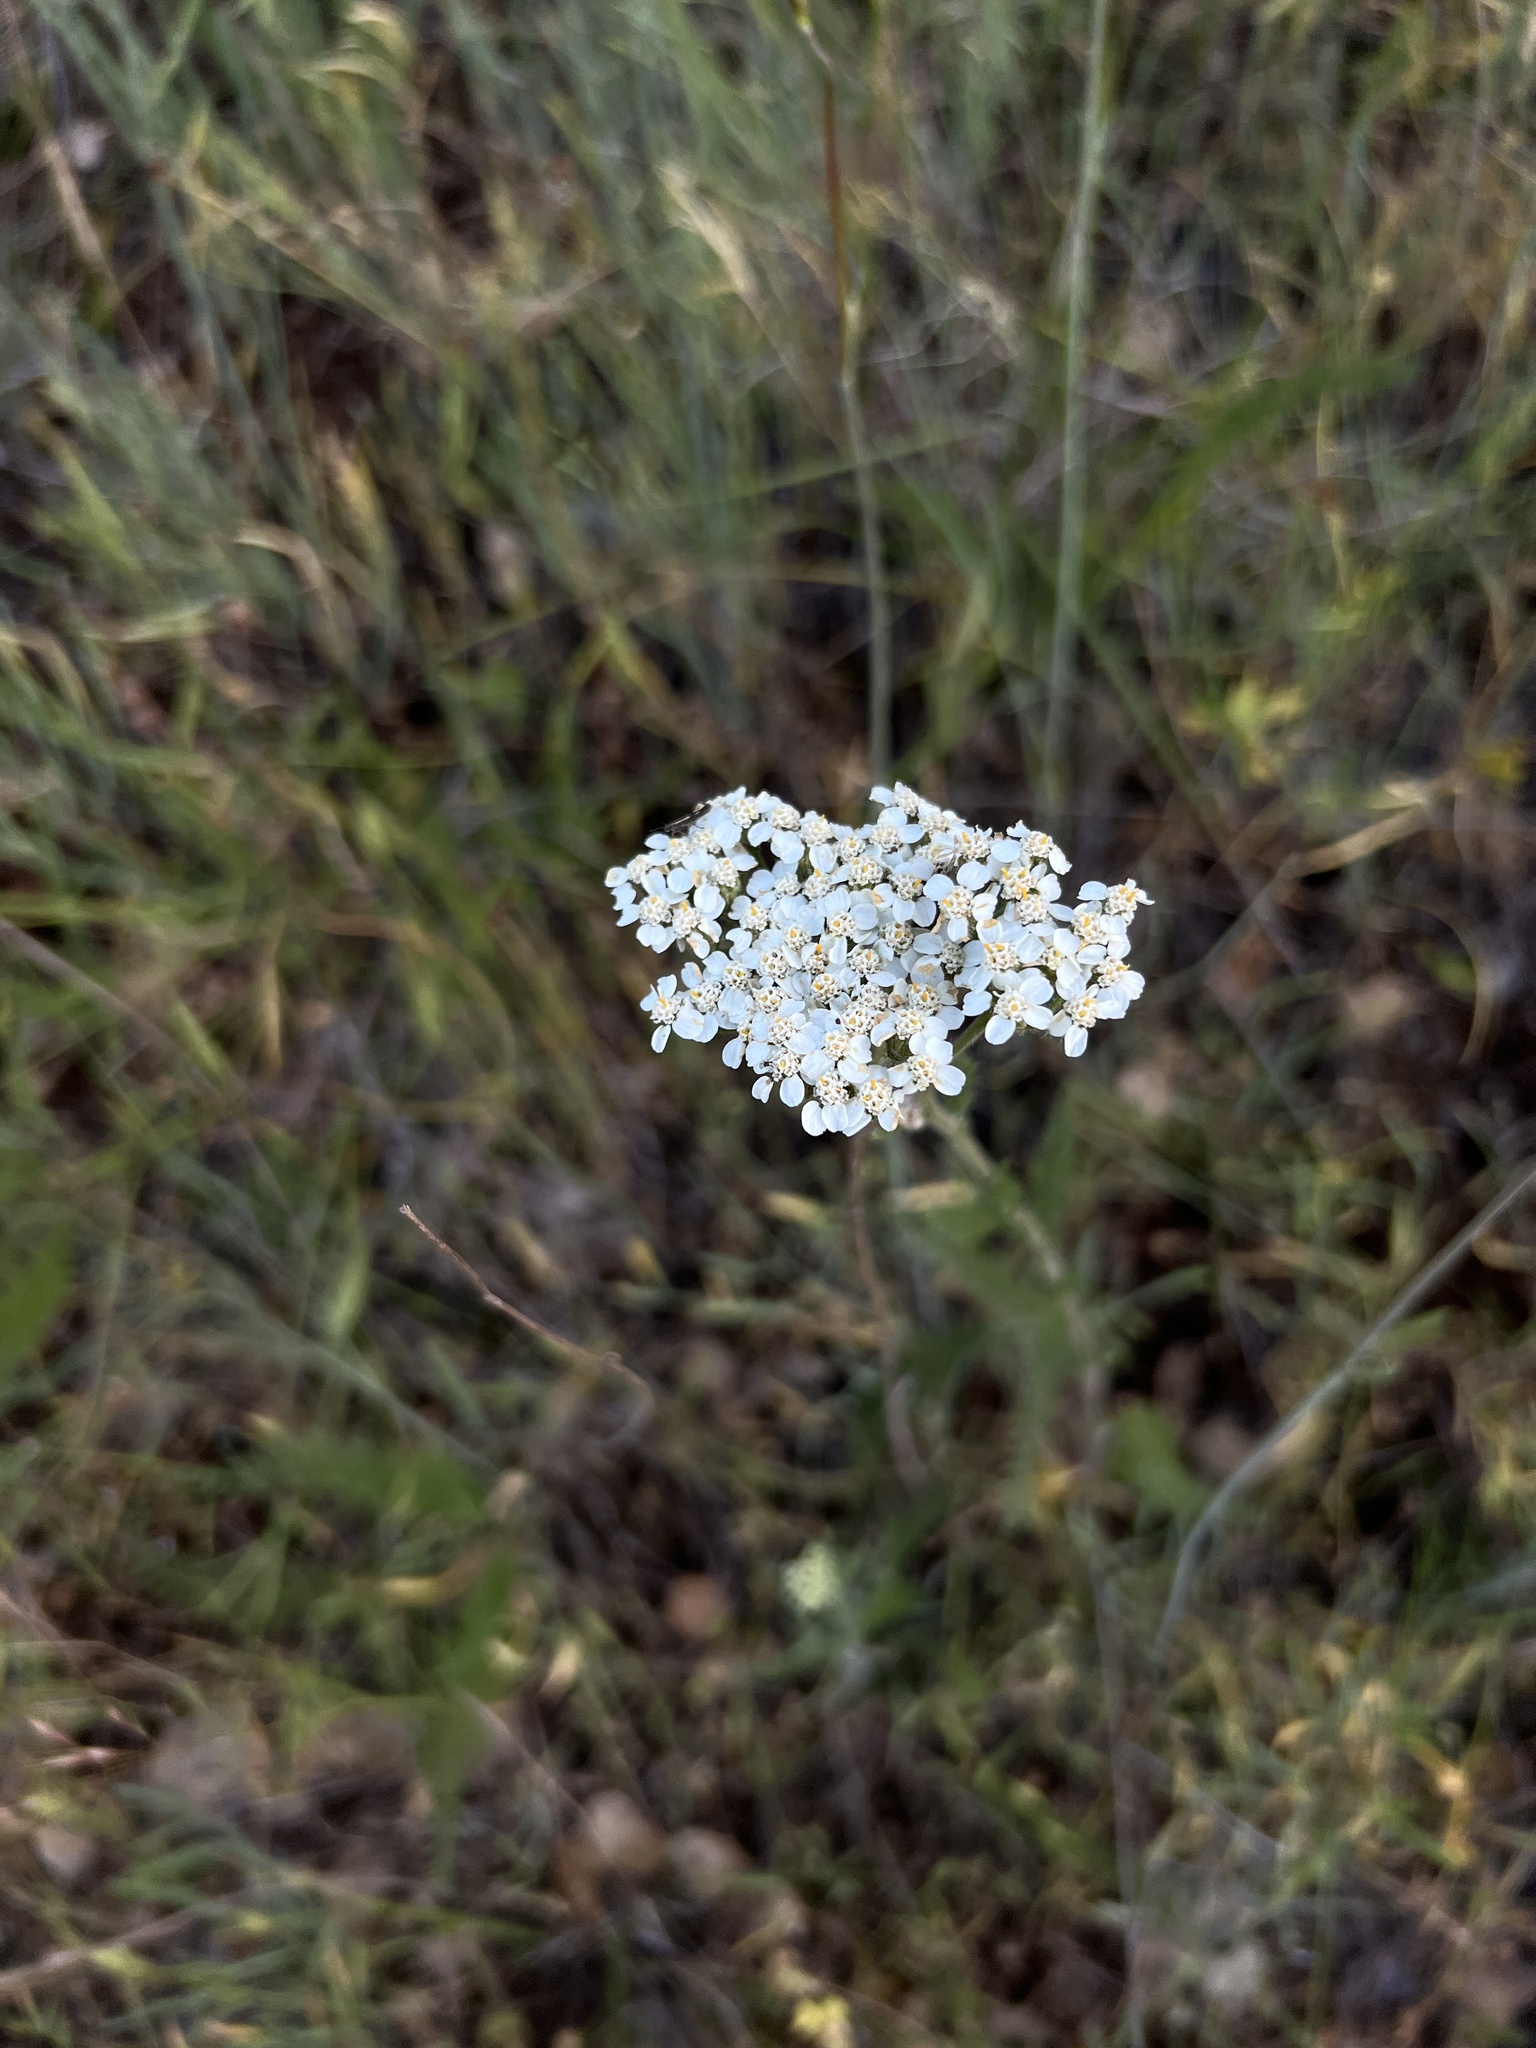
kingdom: Plantae
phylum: Tracheophyta
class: Magnoliopsida
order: Asterales
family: Asteraceae
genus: Achillea
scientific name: Achillea millefolium
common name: Yarrow
